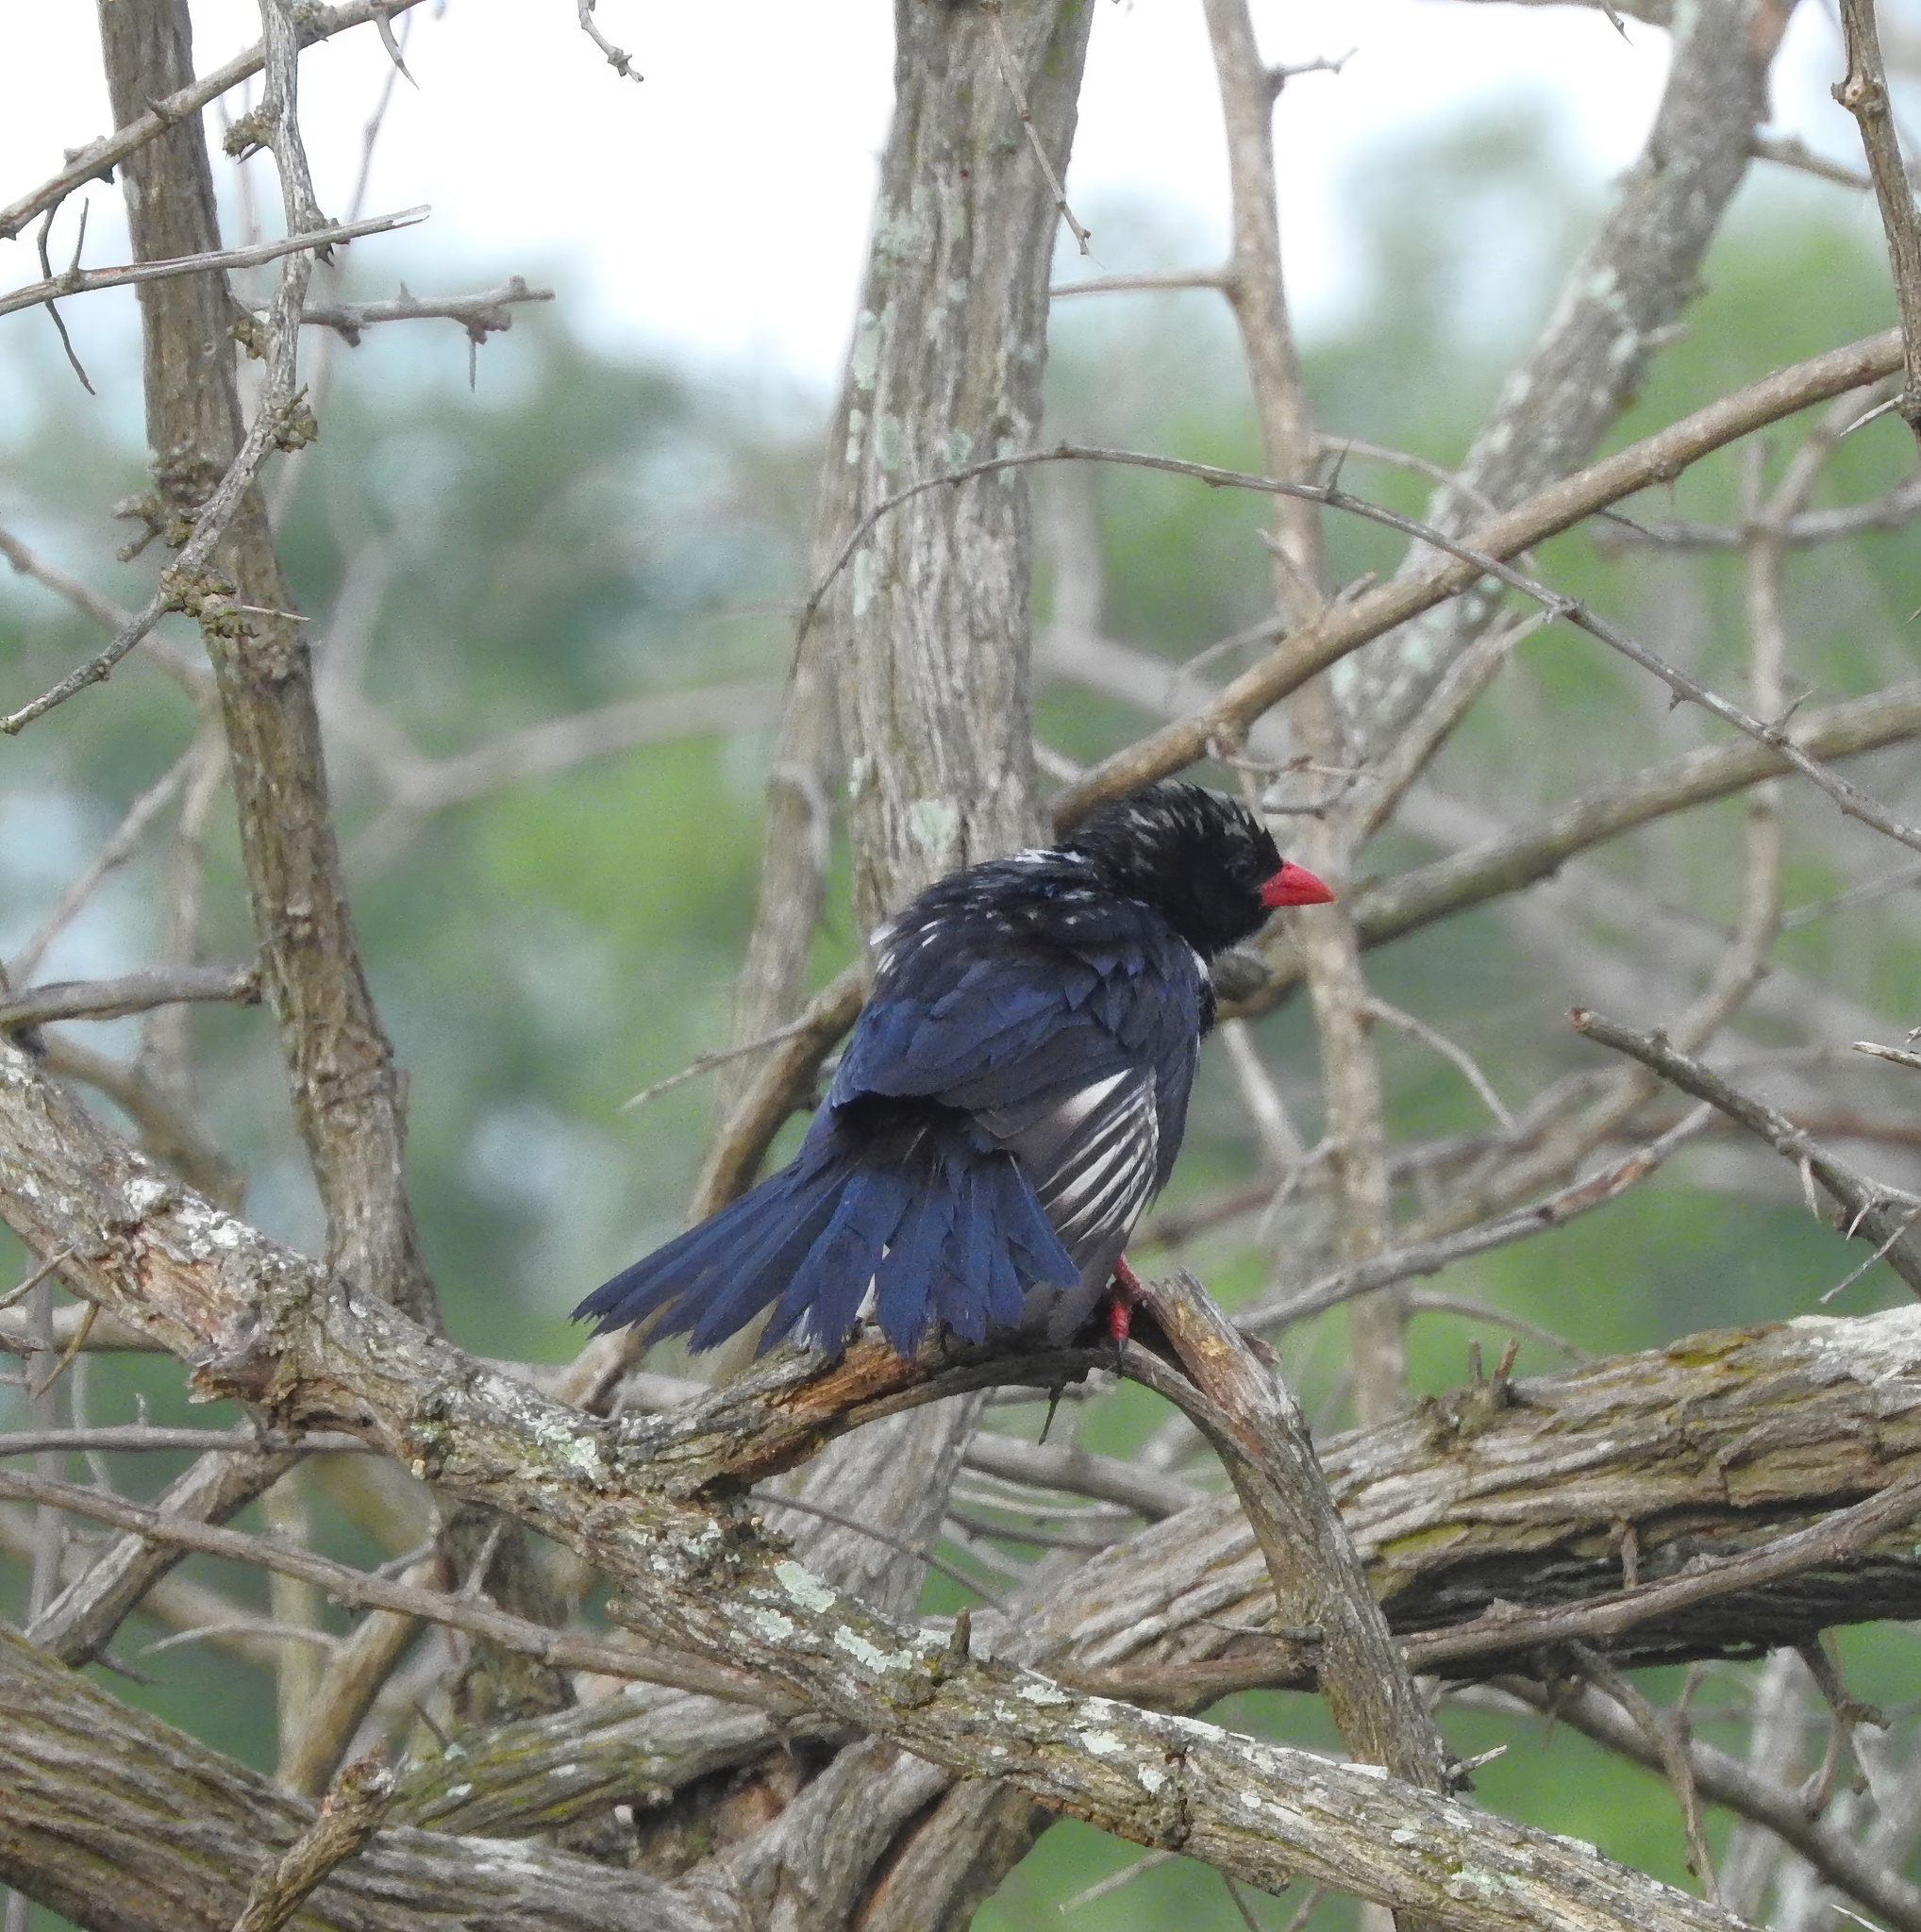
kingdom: Animalia
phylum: Chordata
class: Aves
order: Passeriformes
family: Ploceidae
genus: Bubalornis
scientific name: Bubalornis niger
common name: Red-billed buffalo weaver
